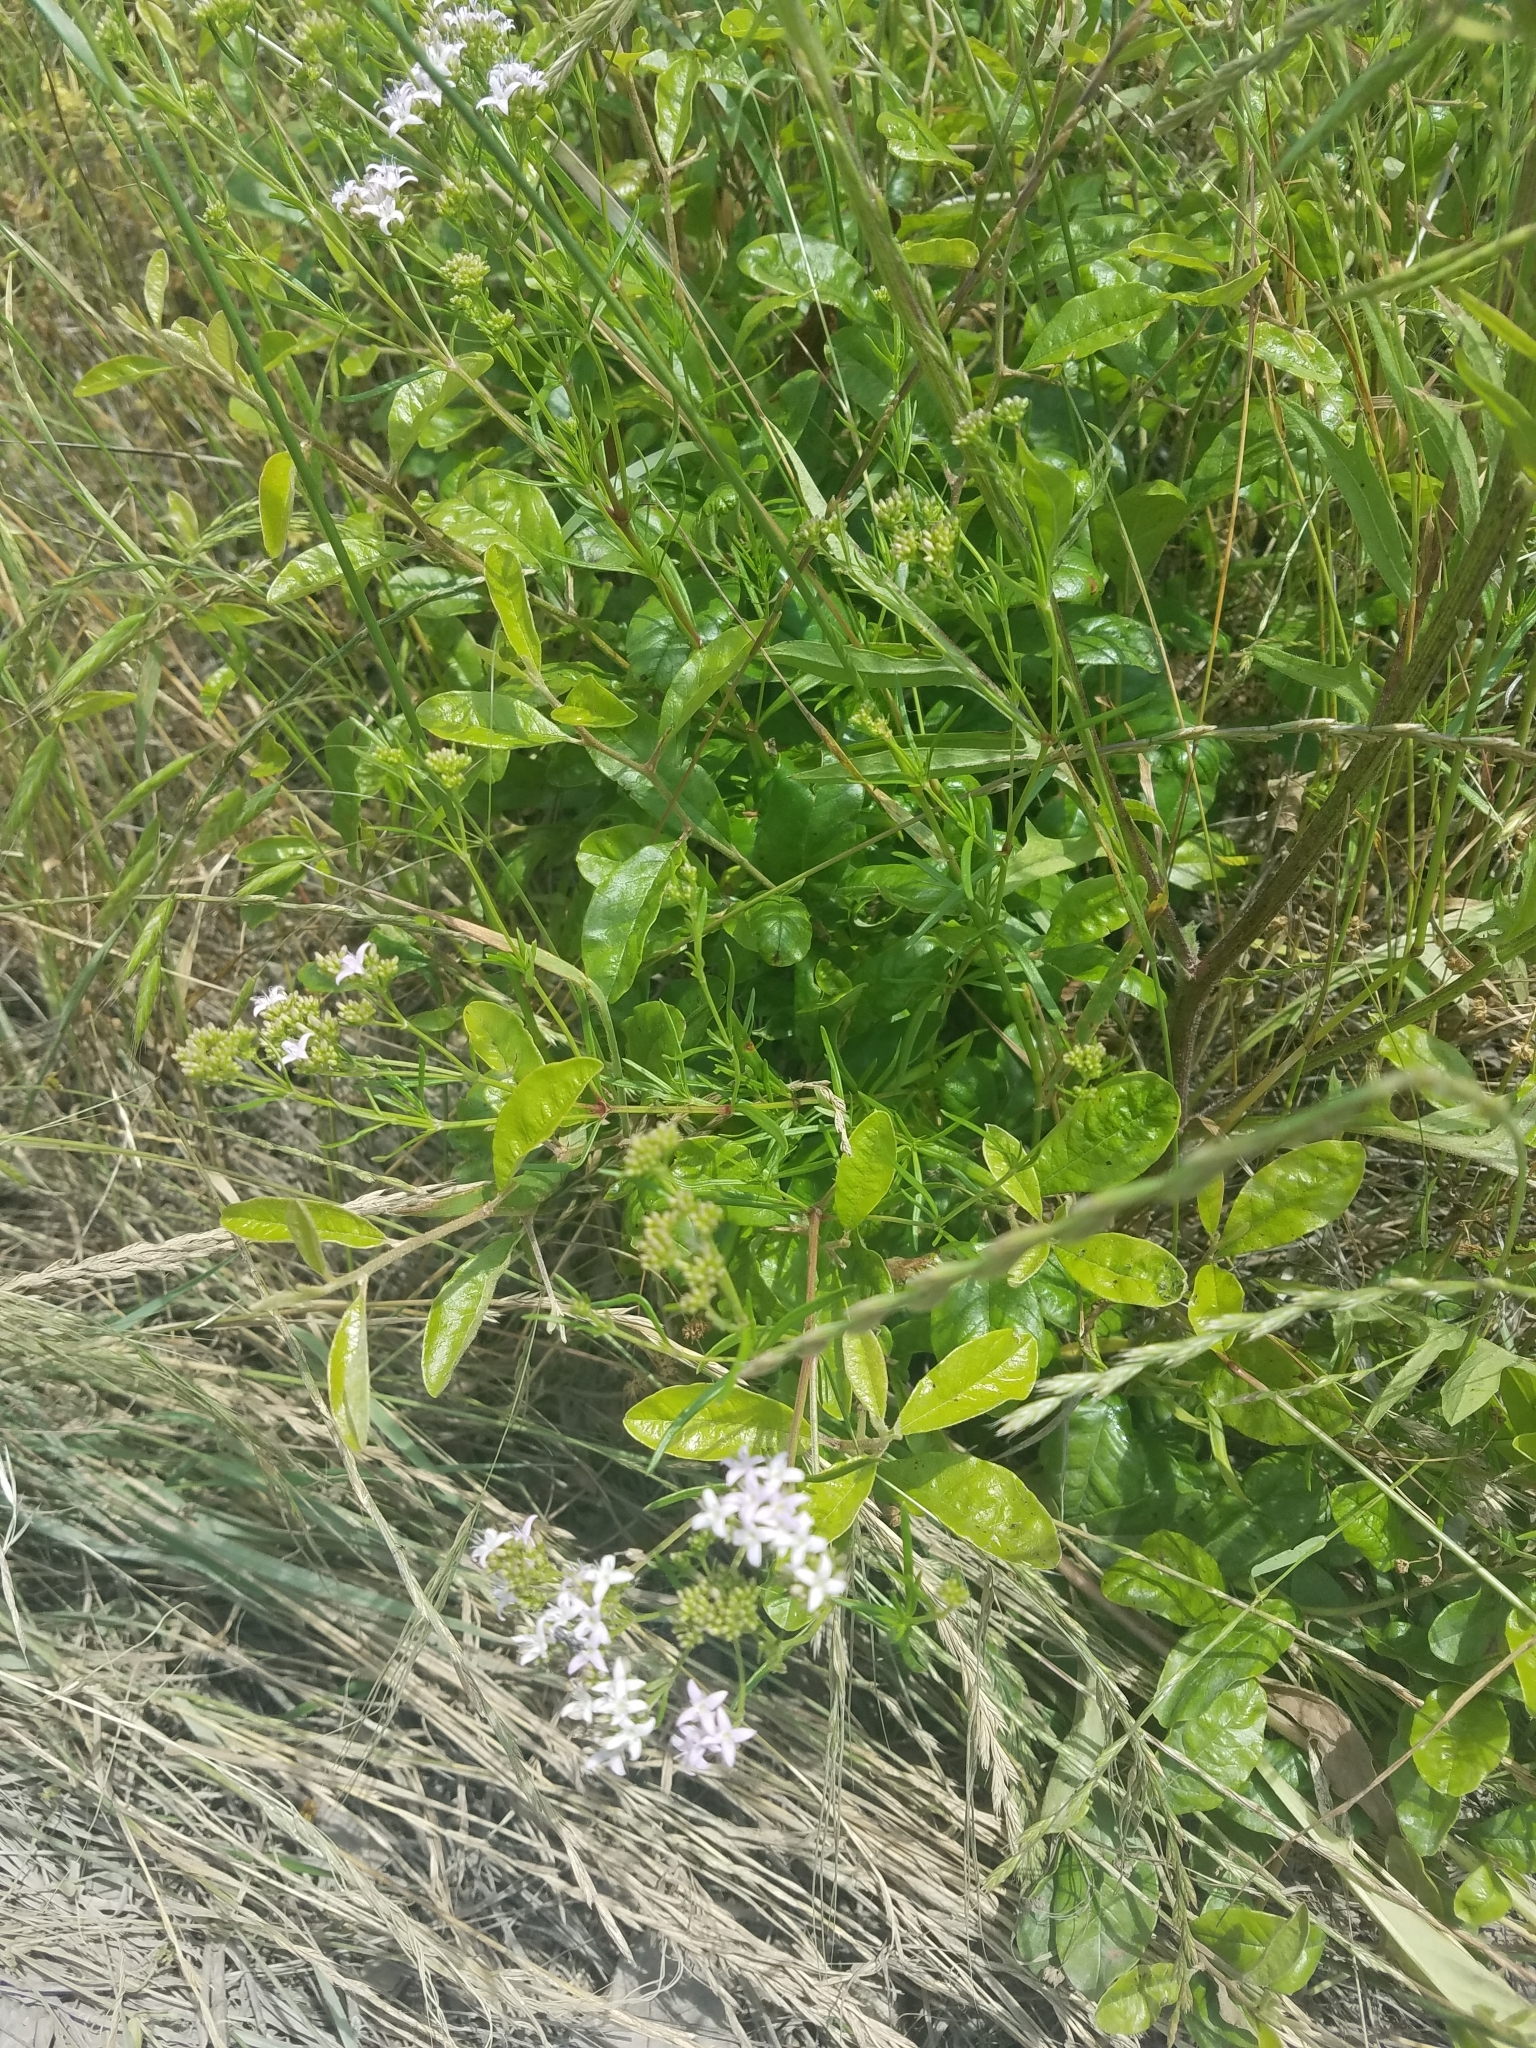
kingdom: Plantae
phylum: Tracheophyta
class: Magnoliopsida
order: Gentianales
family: Rubiaceae
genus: Stenaria
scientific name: Stenaria nigricans
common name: Diamondflowers
